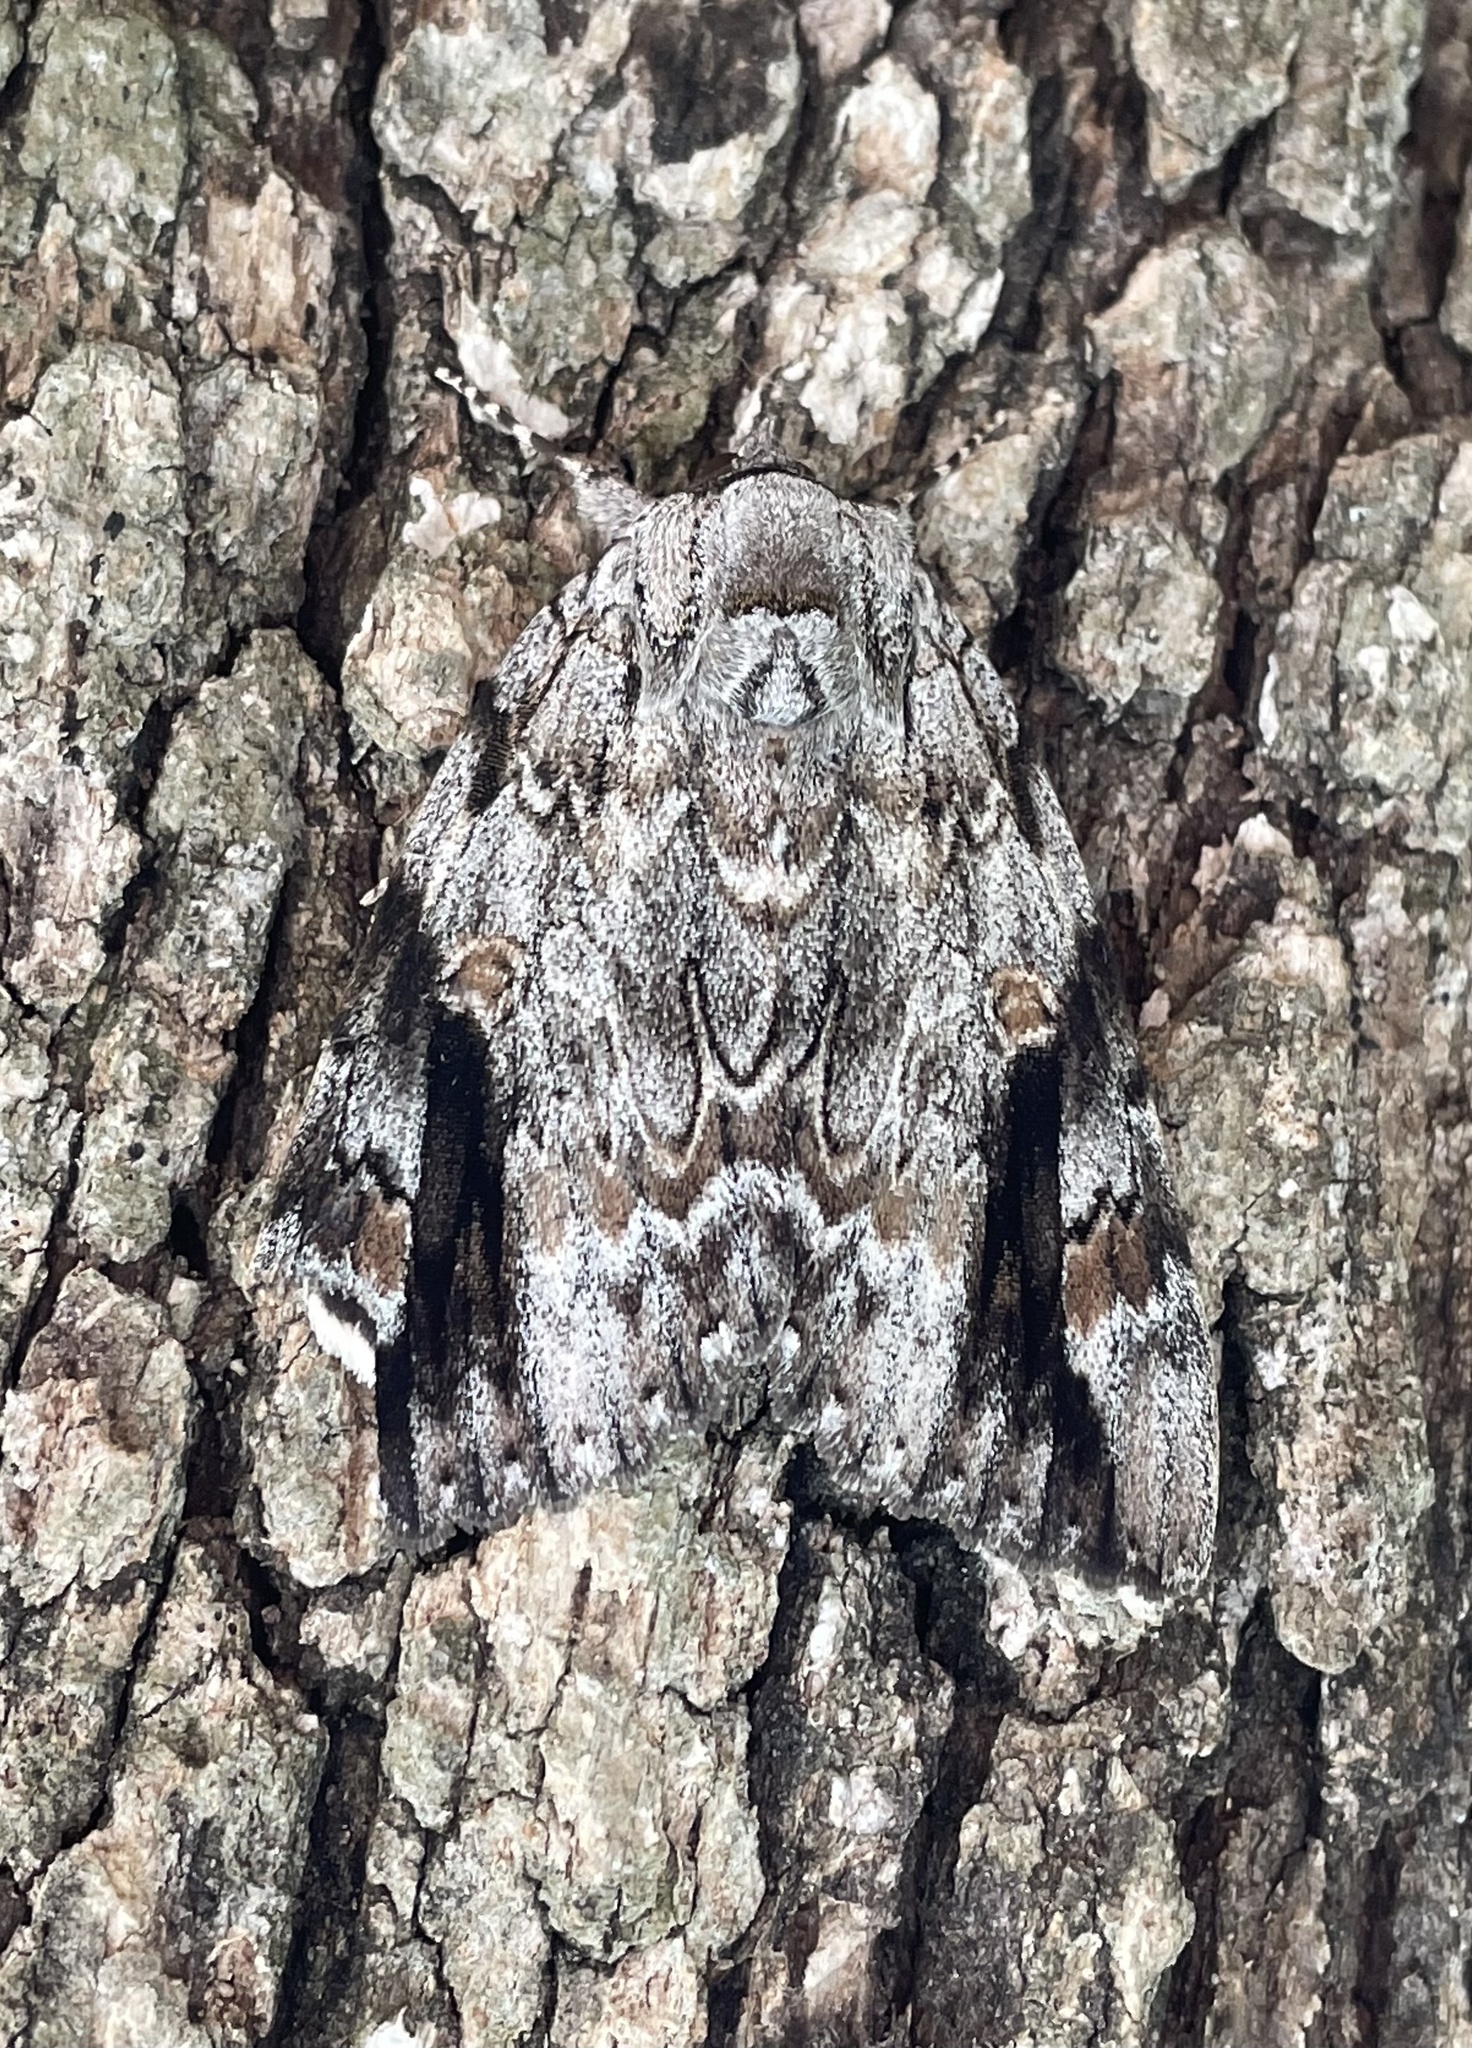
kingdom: Animalia
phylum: Arthropoda
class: Insecta
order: Lepidoptera
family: Erebidae
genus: Catocala
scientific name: Catocala maestosa
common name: Sad underwing
